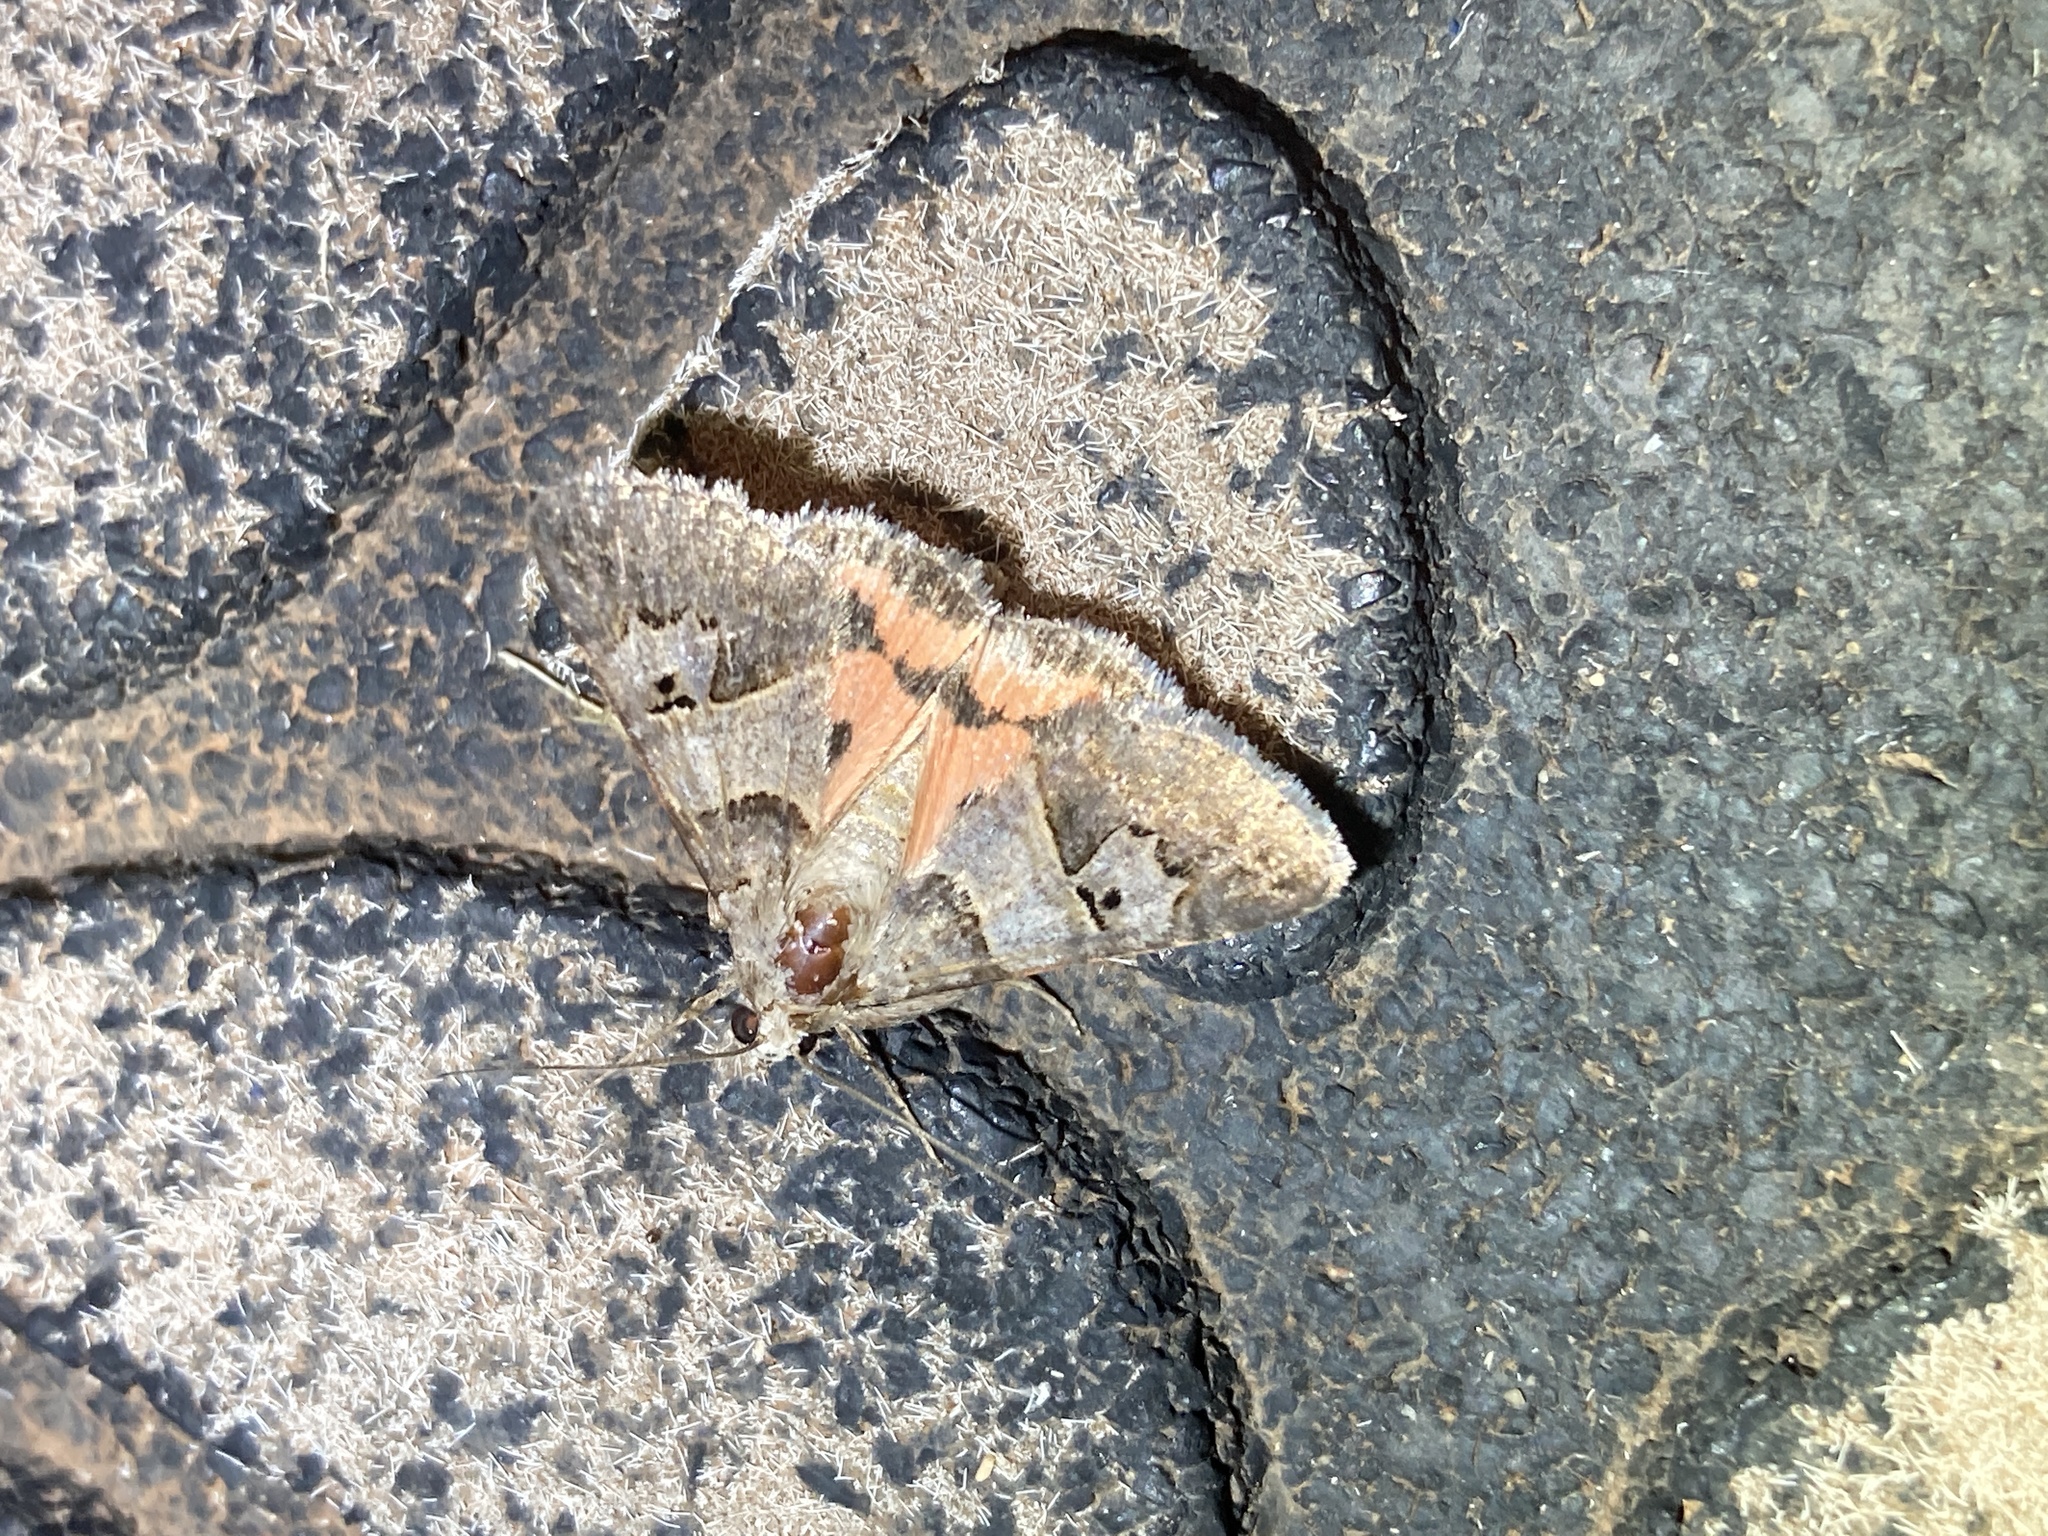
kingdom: Animalia
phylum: Arthropoda
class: Insecta
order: Lepidoptera
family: Erebidae
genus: Drasteria
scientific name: Drasteria ingeniculata
